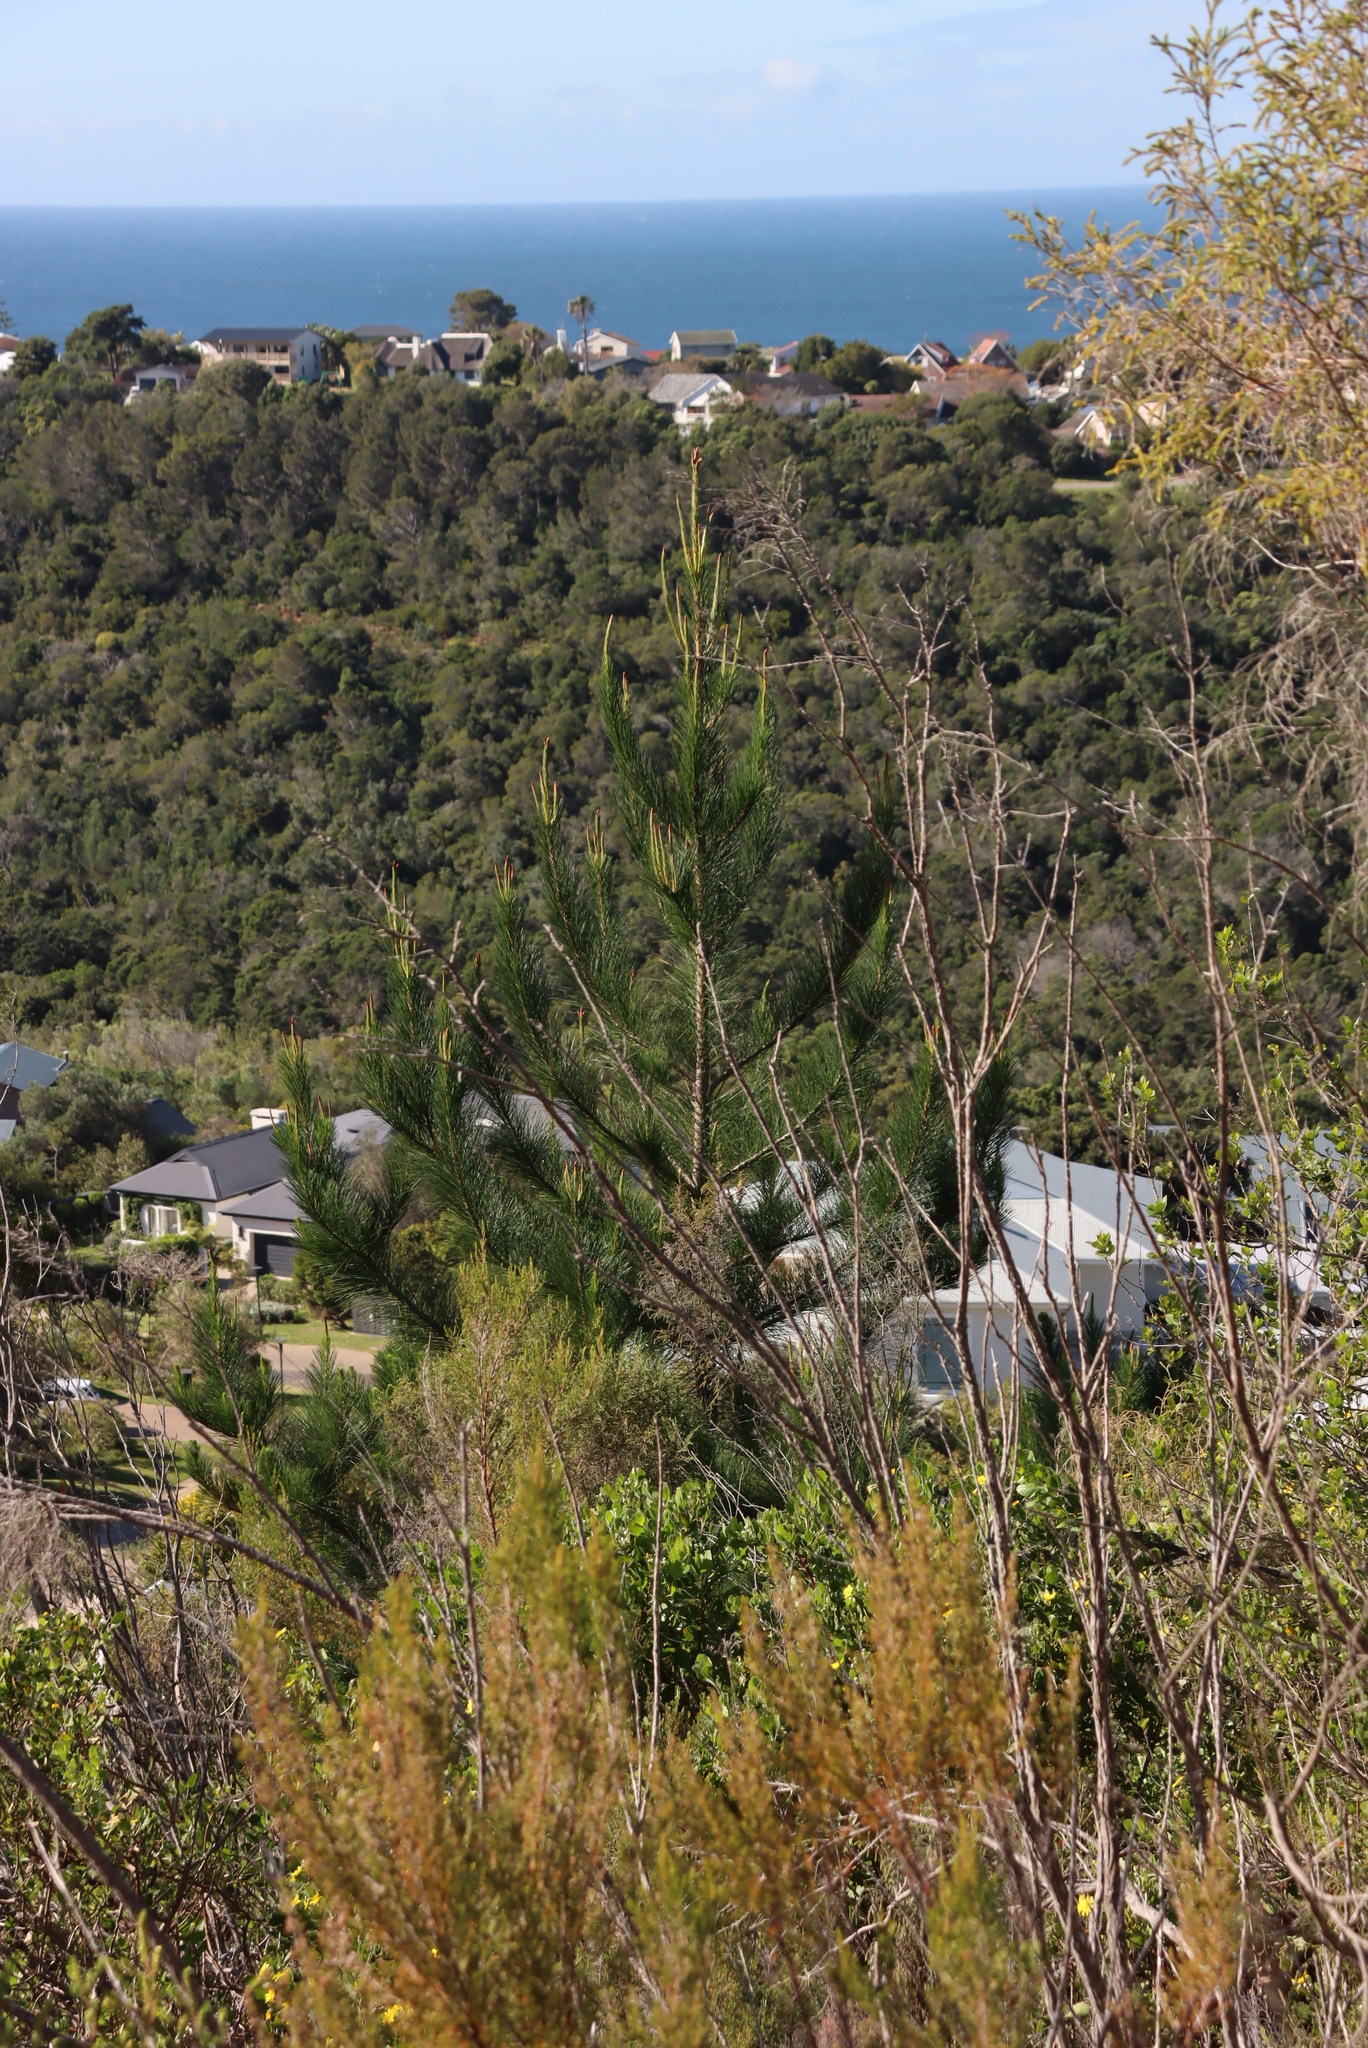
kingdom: Plantae
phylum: Tracheophyta
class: Pinopsida
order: Pinales
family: Pinaceae
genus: Pinus
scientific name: Pinus radiata
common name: Monterey pine
